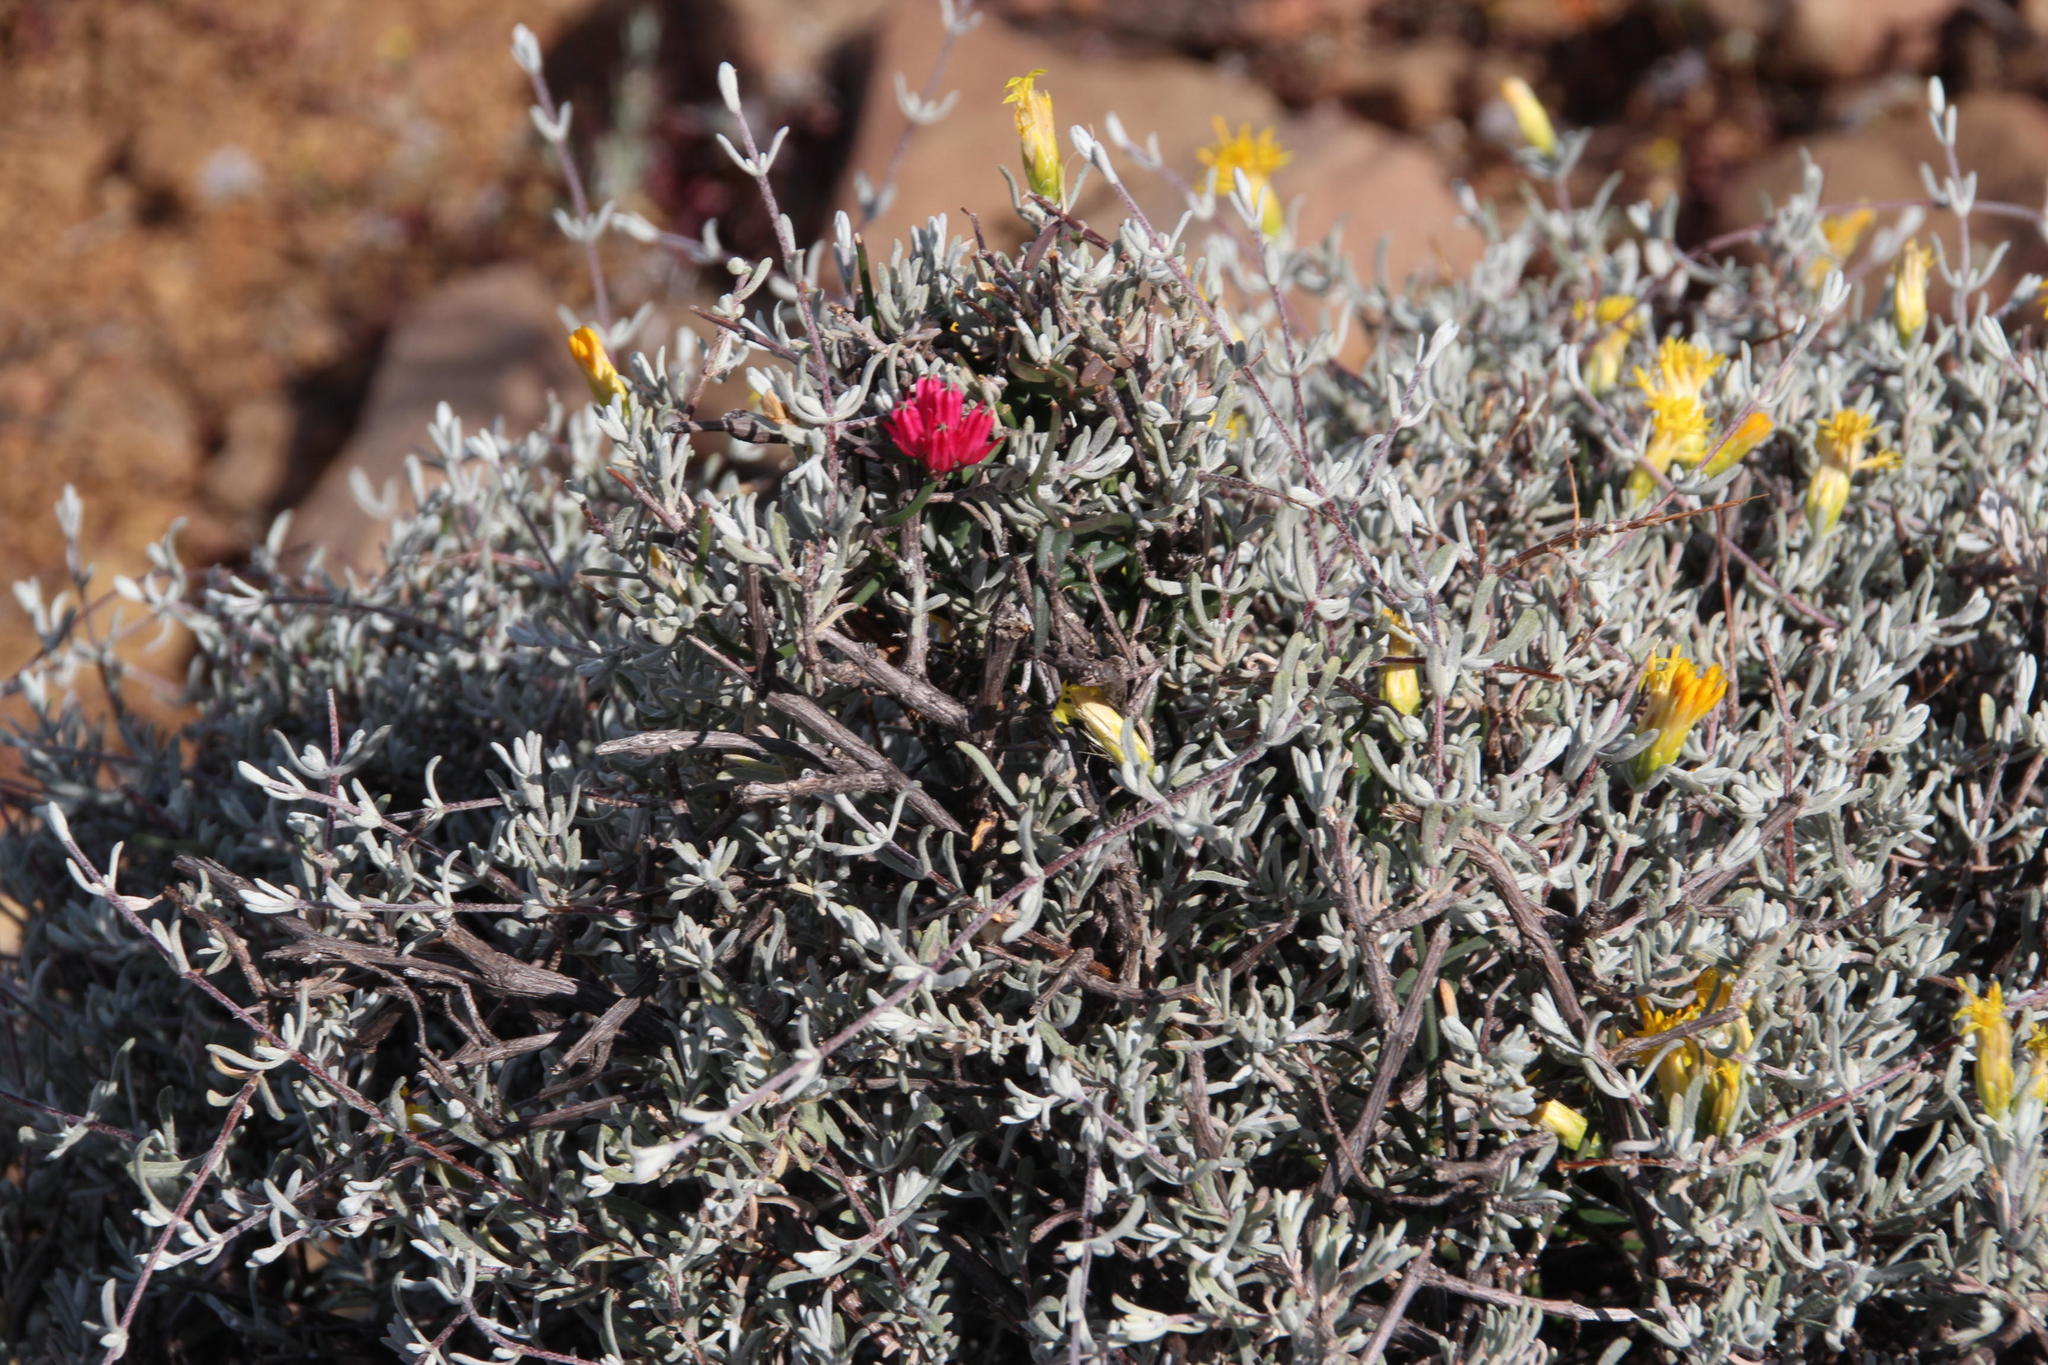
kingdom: Plantae
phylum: Tracheophyta
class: Magnoliopsida
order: Asterales
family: Asteraceae
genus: Pteronia
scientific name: Pteronia incana
